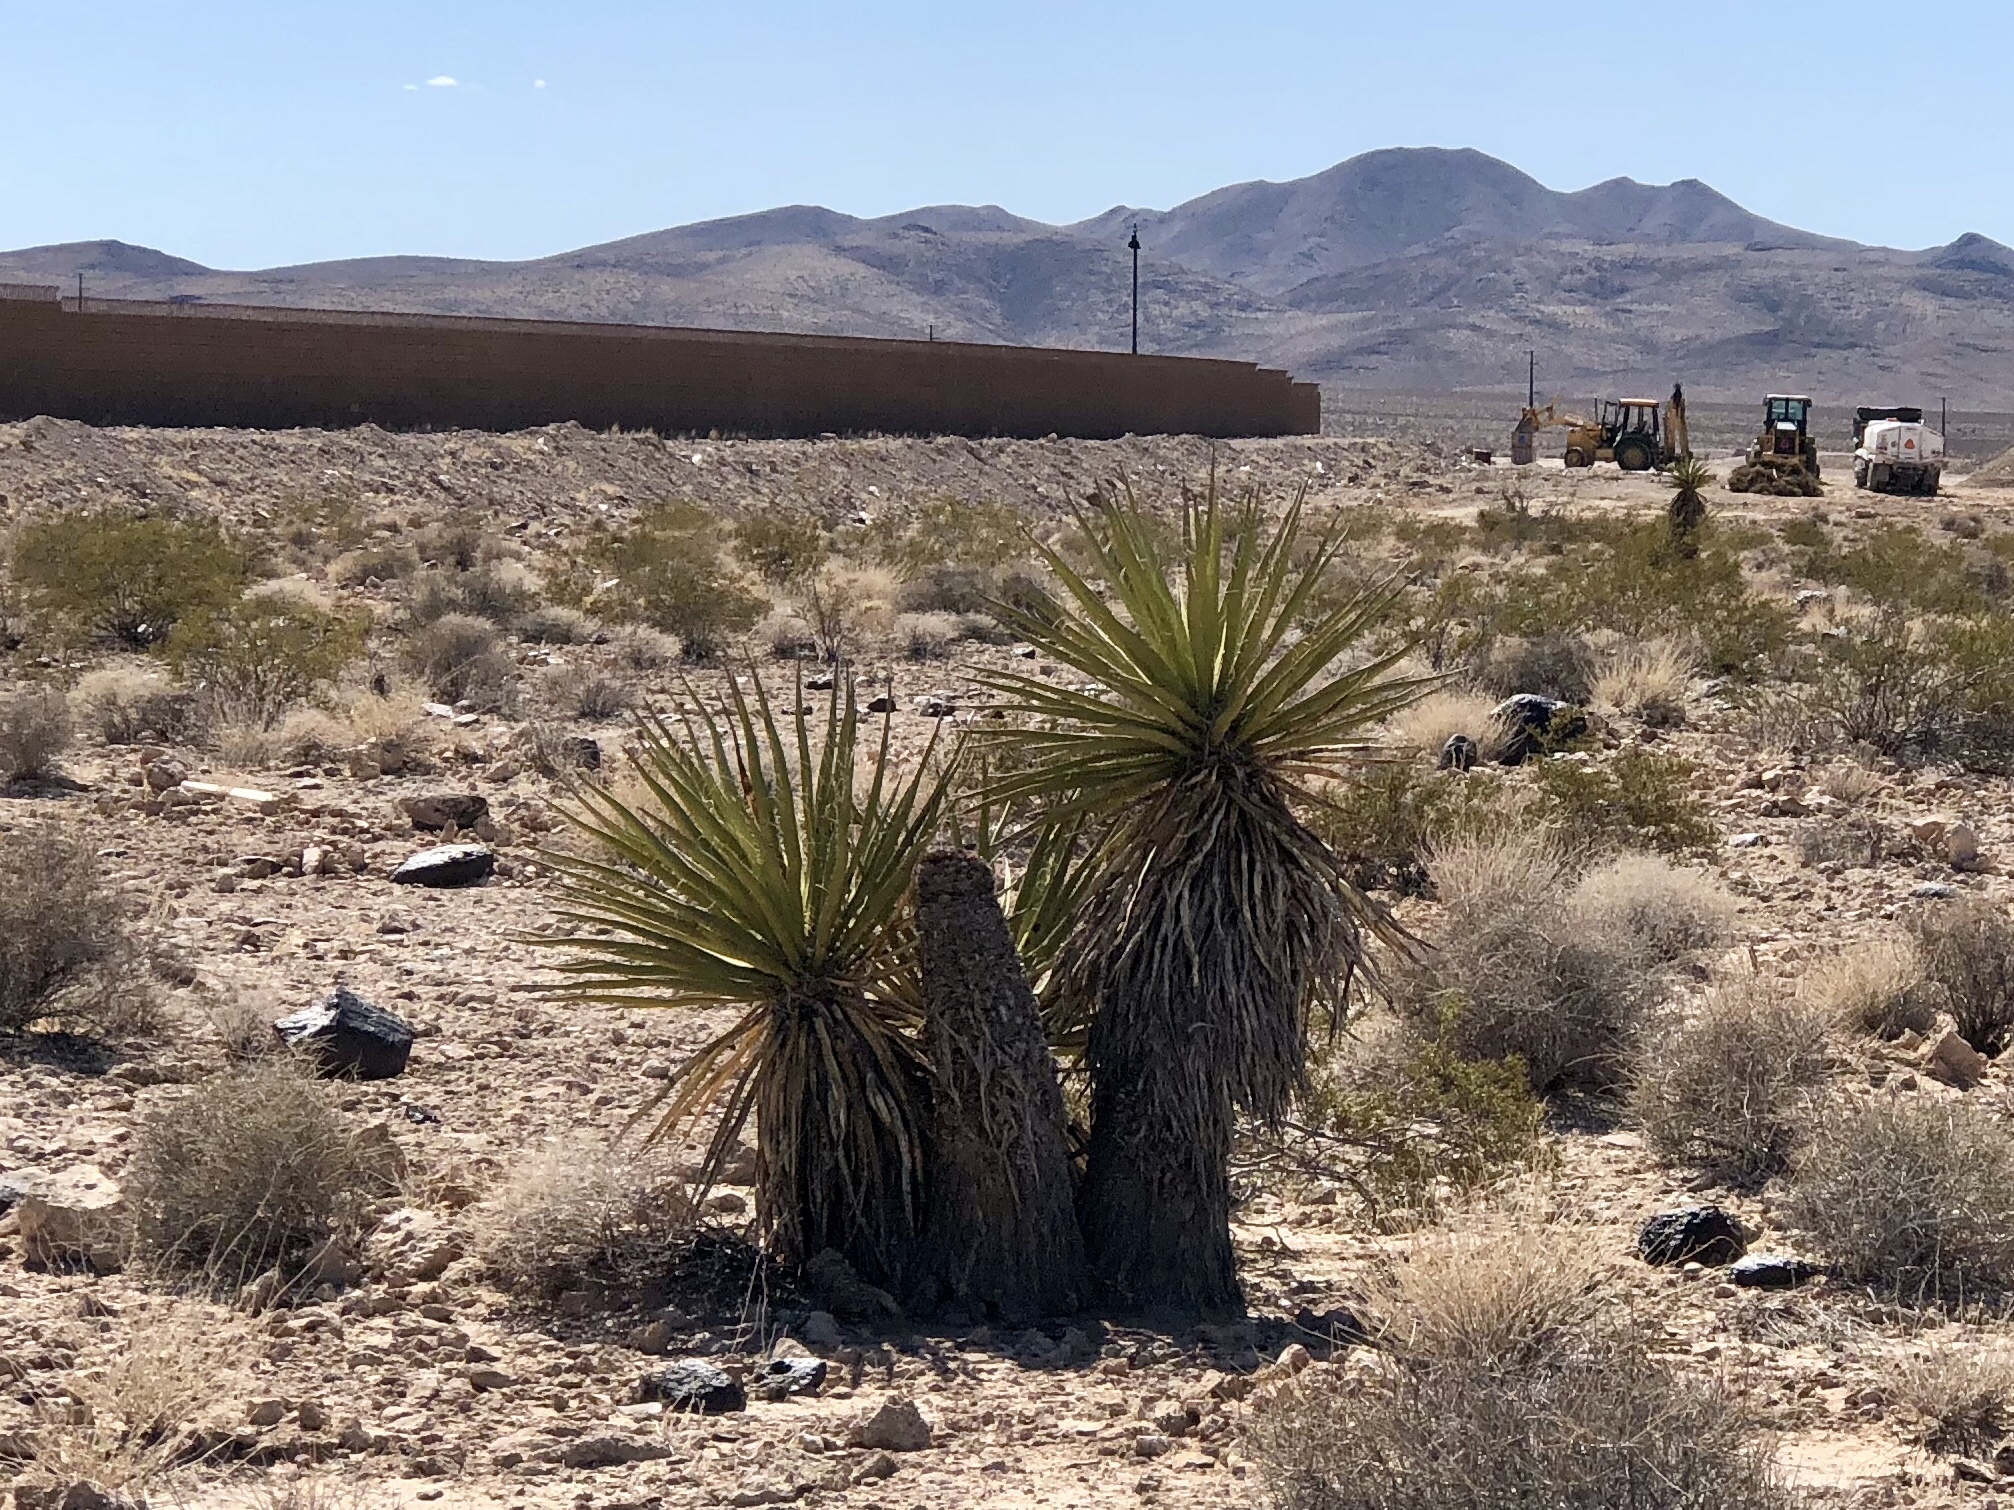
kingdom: Plantae
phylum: Tracheophyta
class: Liliopsida
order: Asparagales
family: Asparagaceae
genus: Yucca
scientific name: Yucca schidigera
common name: Mojave yucca
